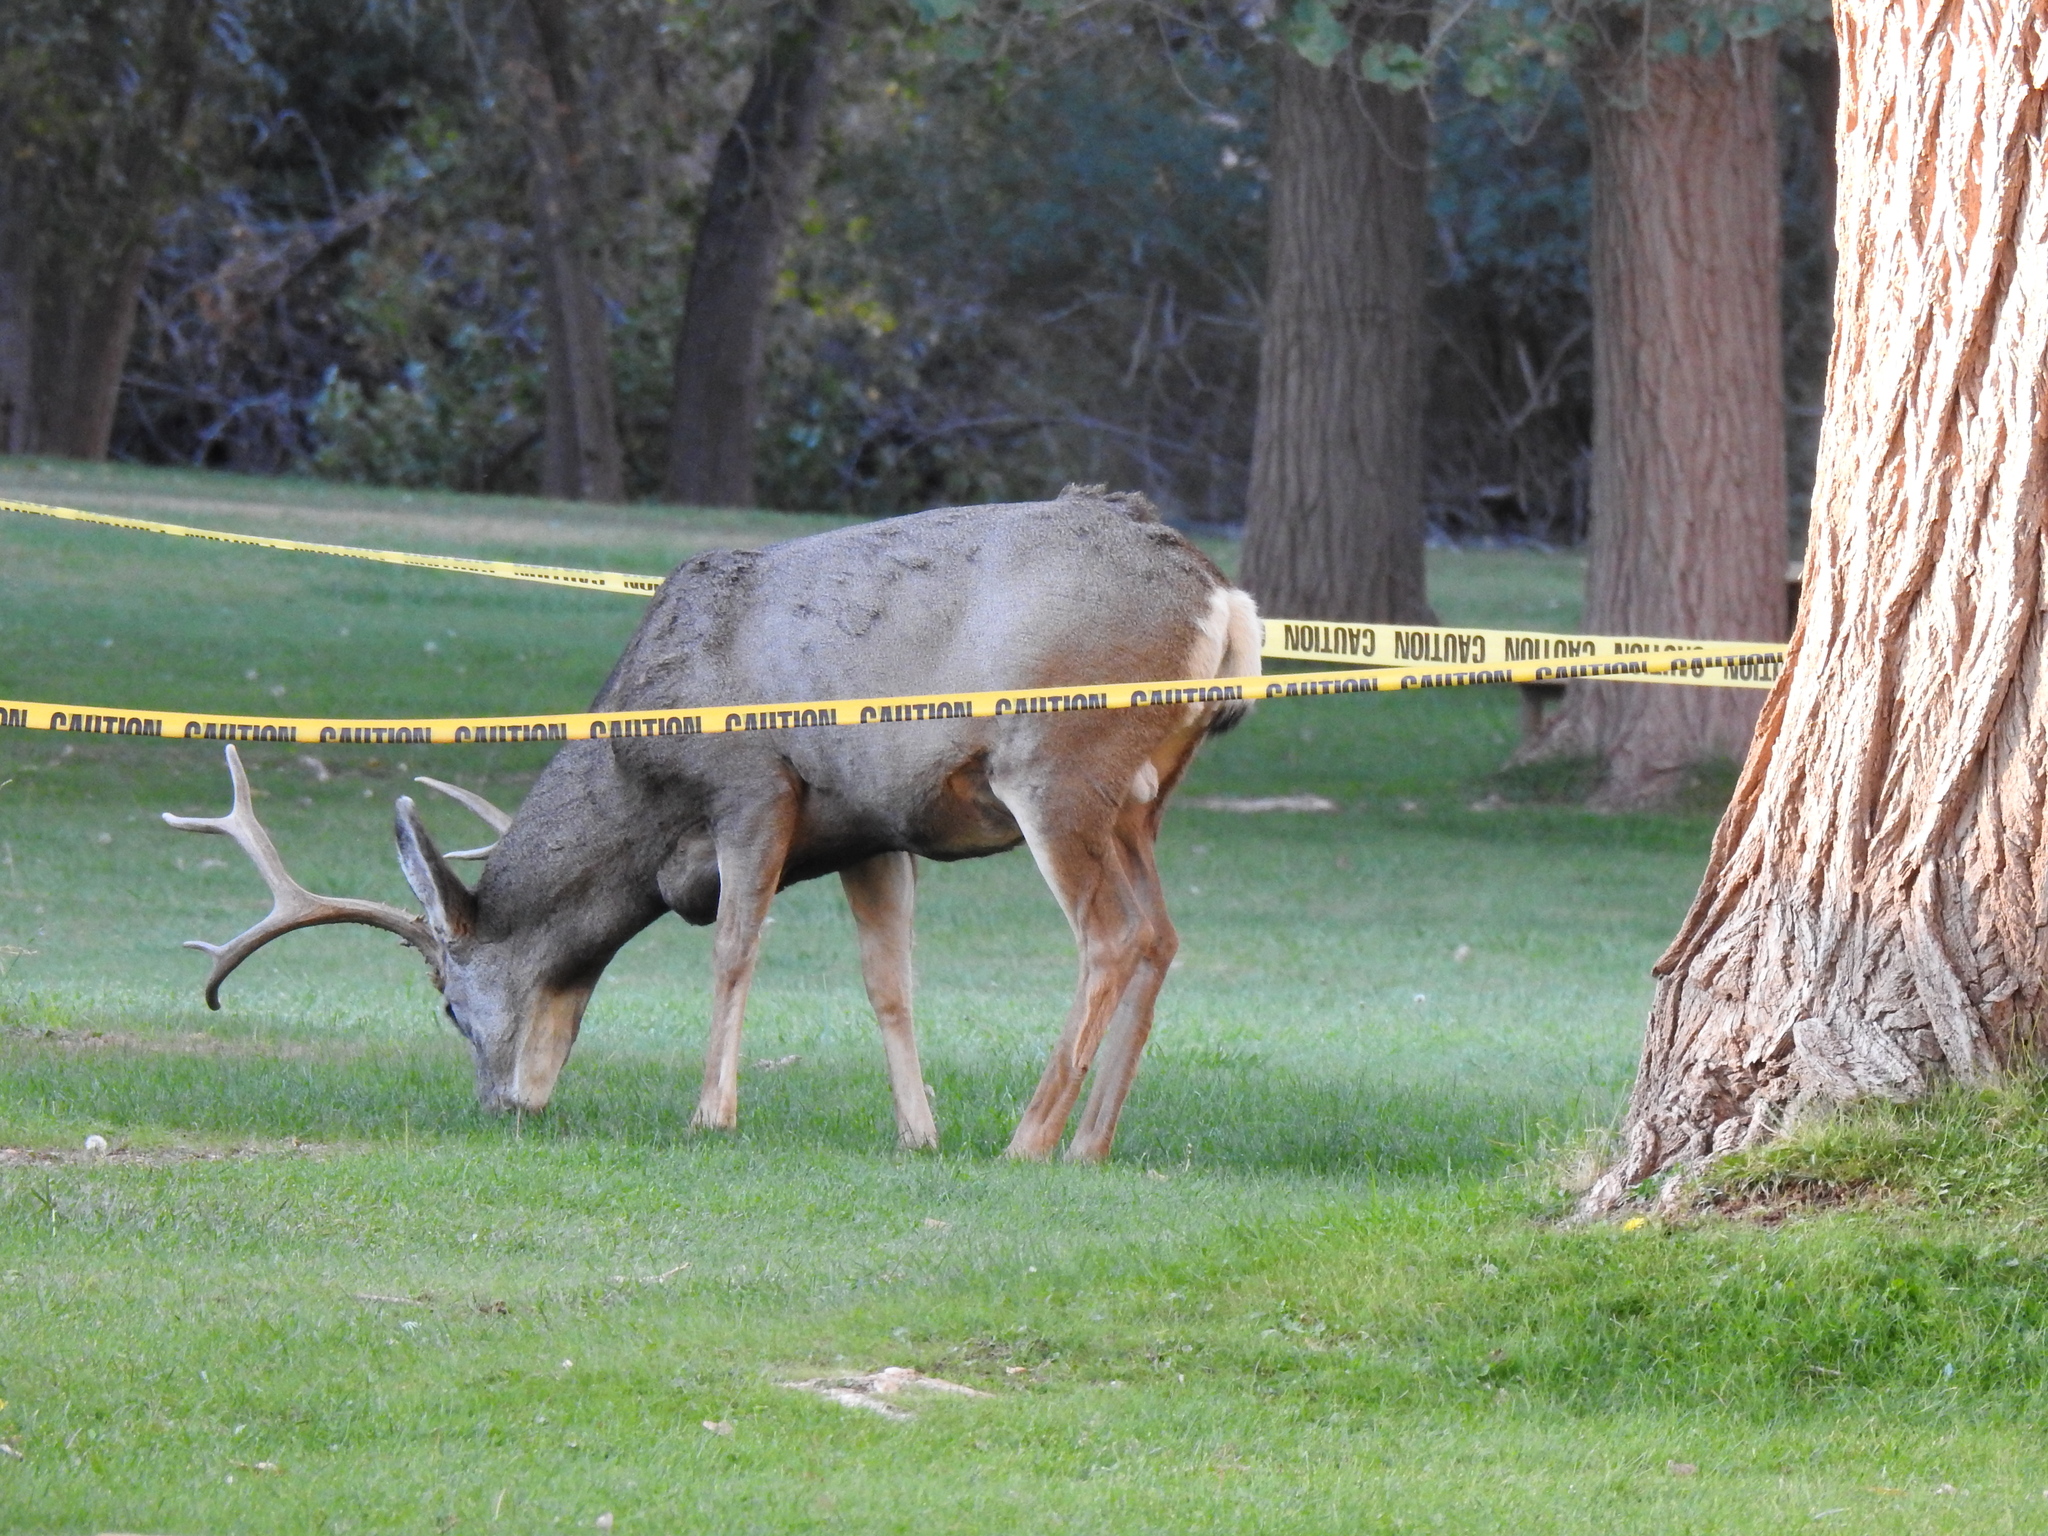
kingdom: Animalia
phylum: Chordata
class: Mammalia
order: Artiodactyla
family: Cervidae
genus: Odocoileus
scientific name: Odocoileus hemionus
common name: Mule deer
